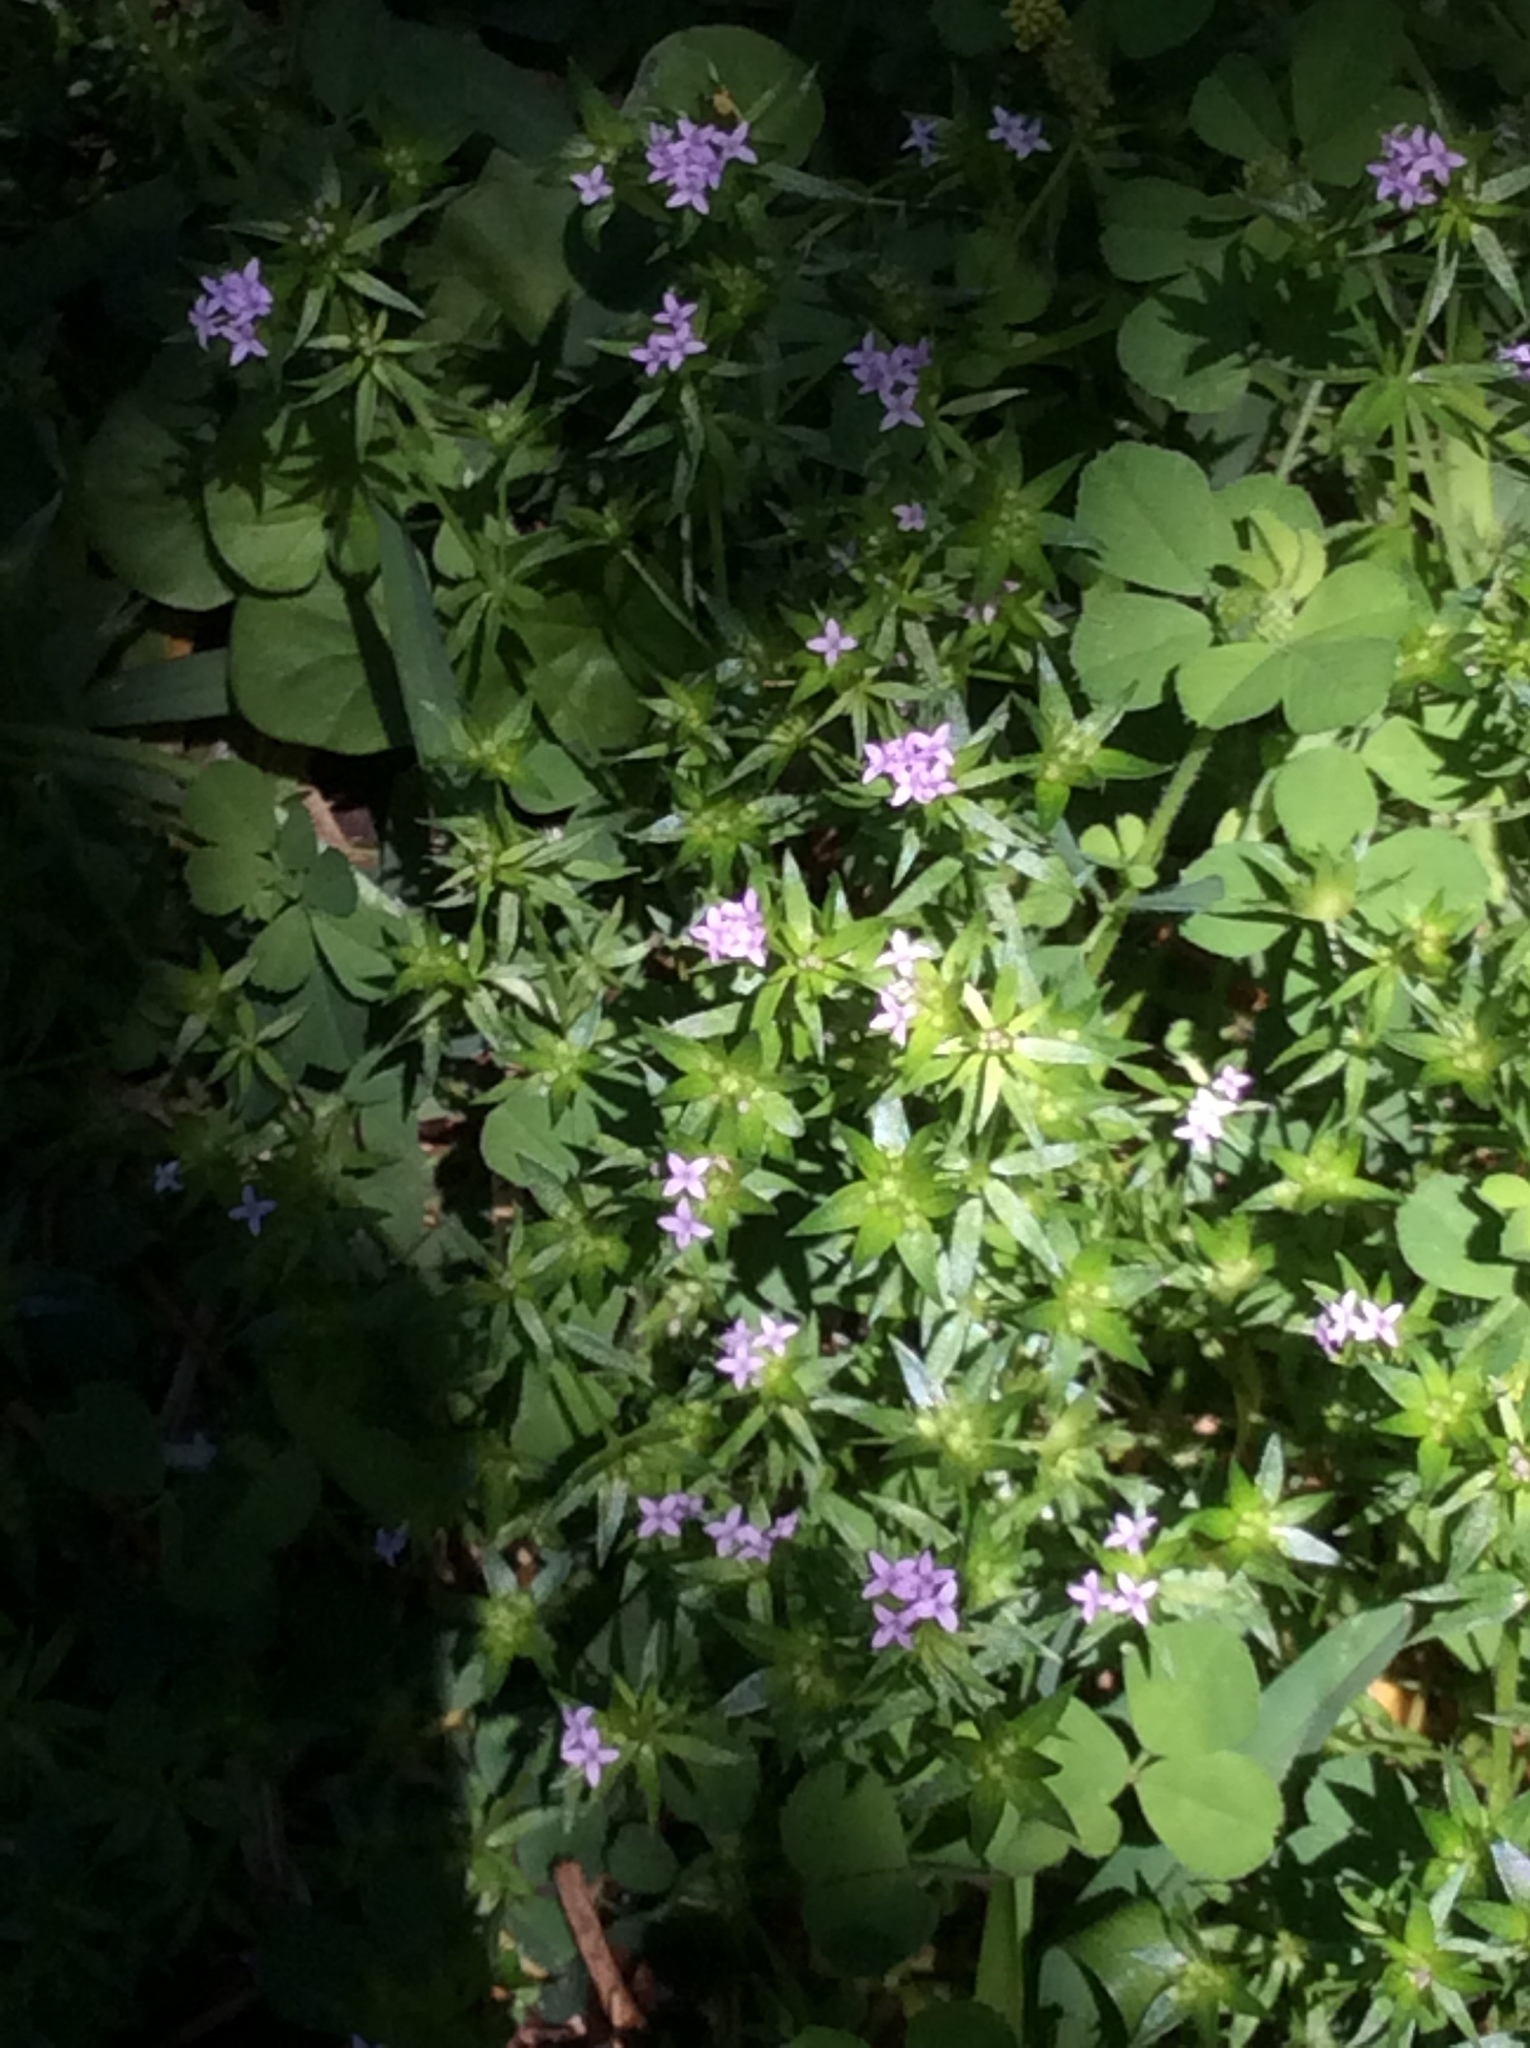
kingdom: Plantae
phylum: Tracheophyta
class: Magnoliopsida
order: Gentianales
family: Rubiaceae
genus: Sherardia
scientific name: Sherardia arvensis
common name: Field madder
